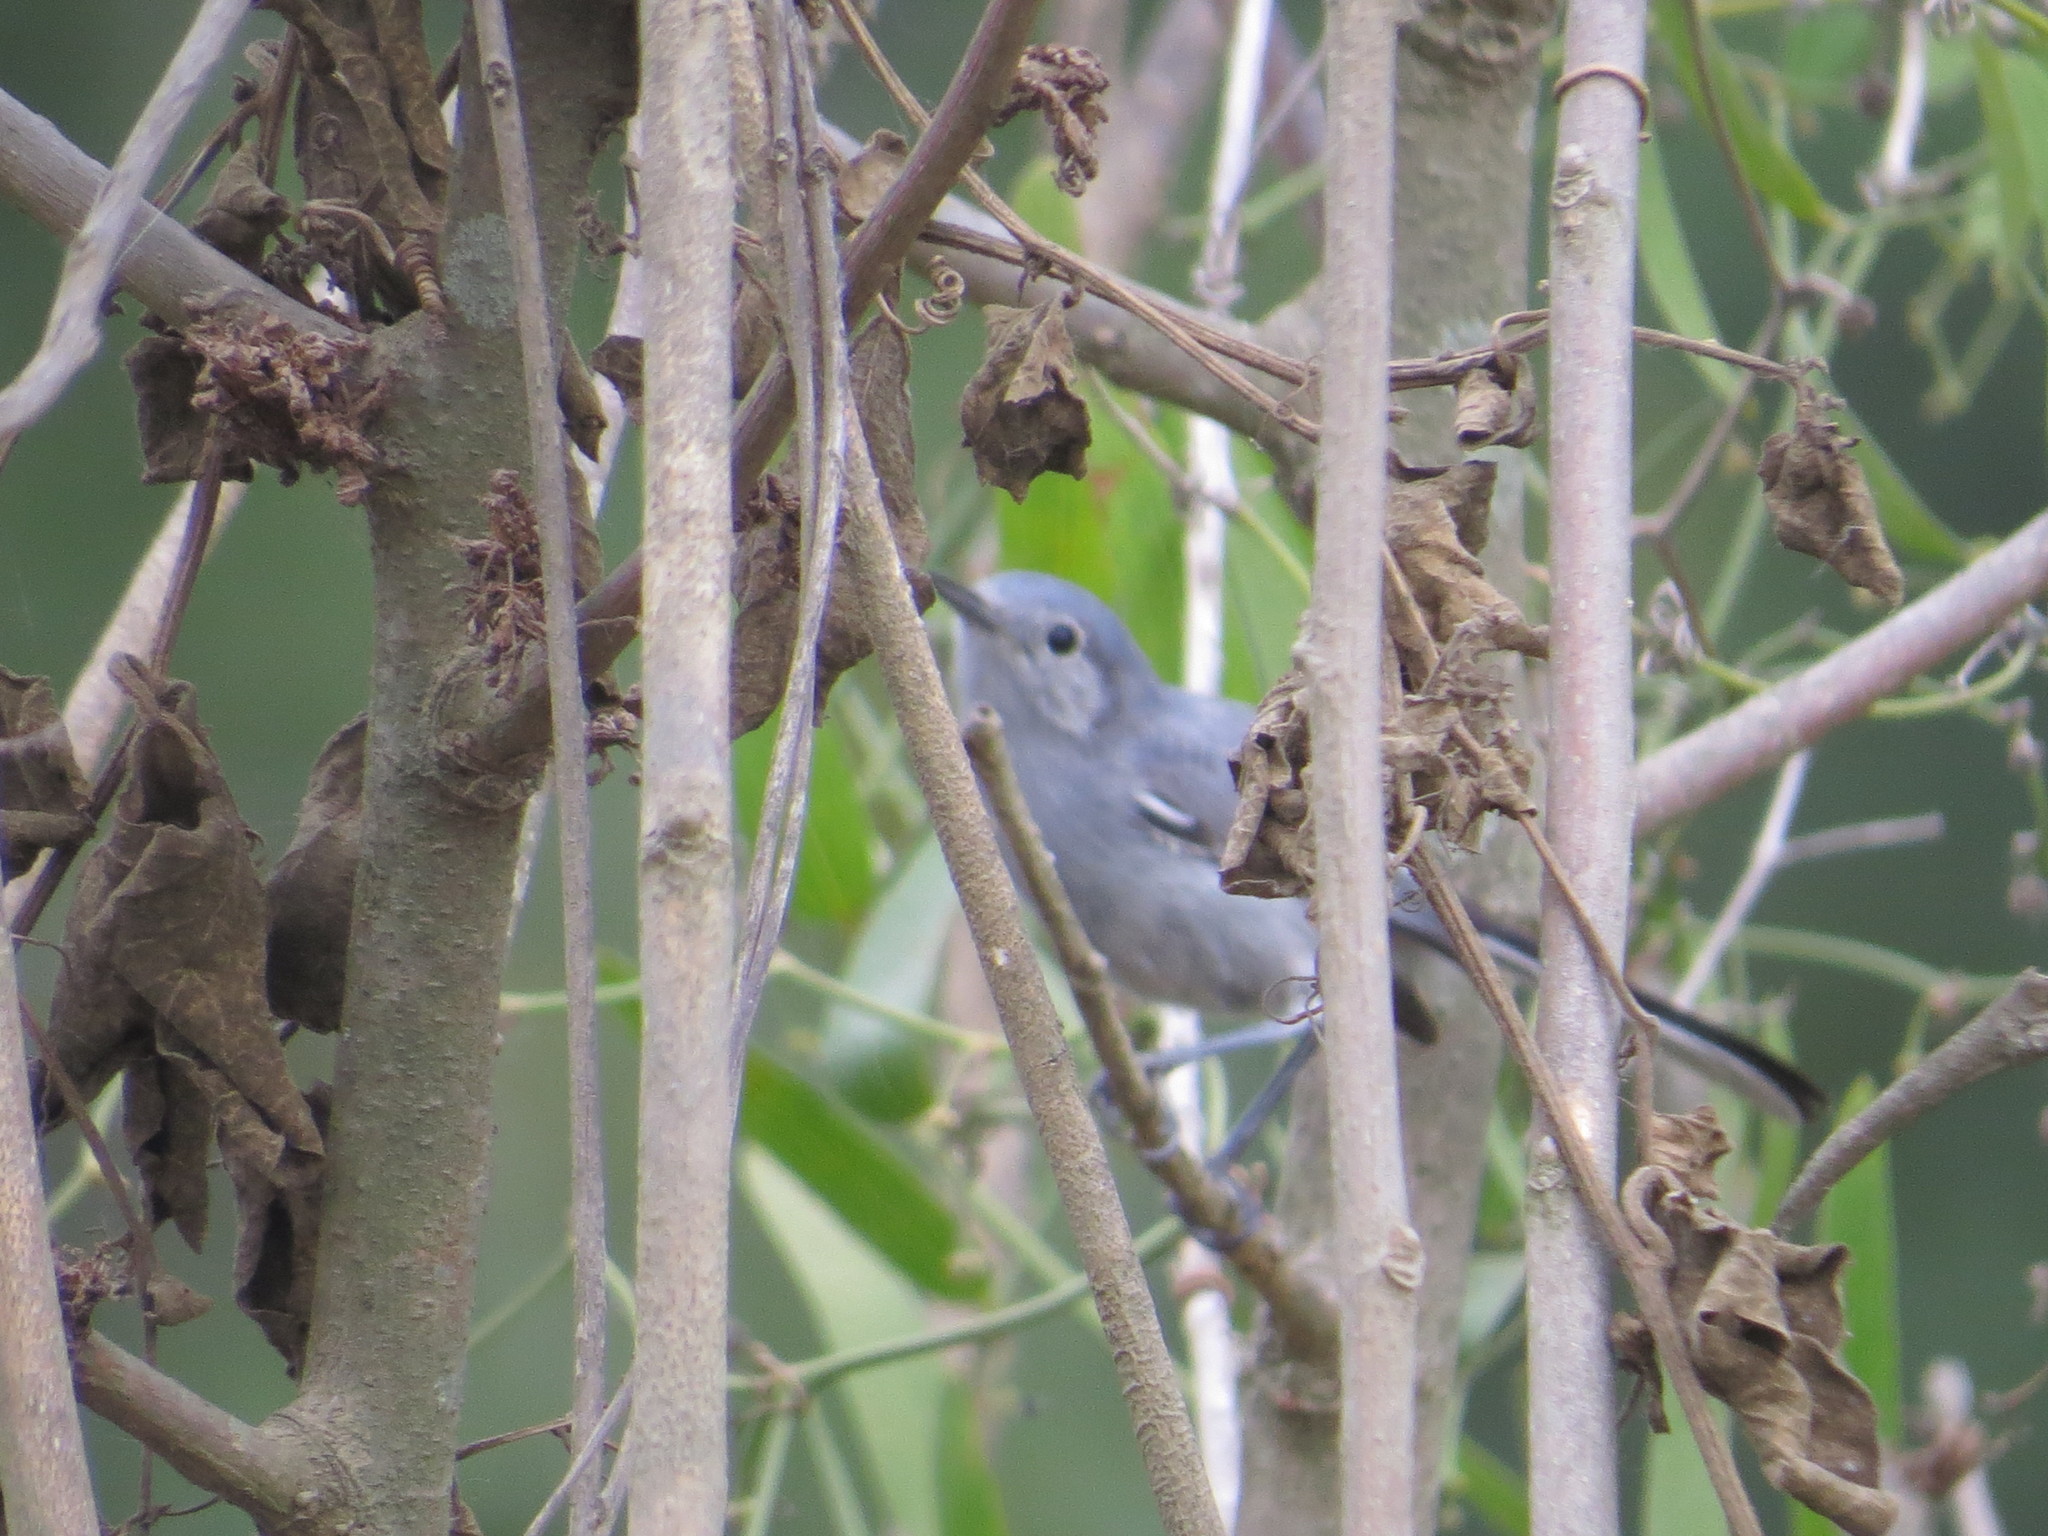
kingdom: Animalia
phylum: Chordata
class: Aves
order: Passeriformes
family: Polioptilidae
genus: Polioptila
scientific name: Polioptila dumicola
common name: Masked gnatcatcher
